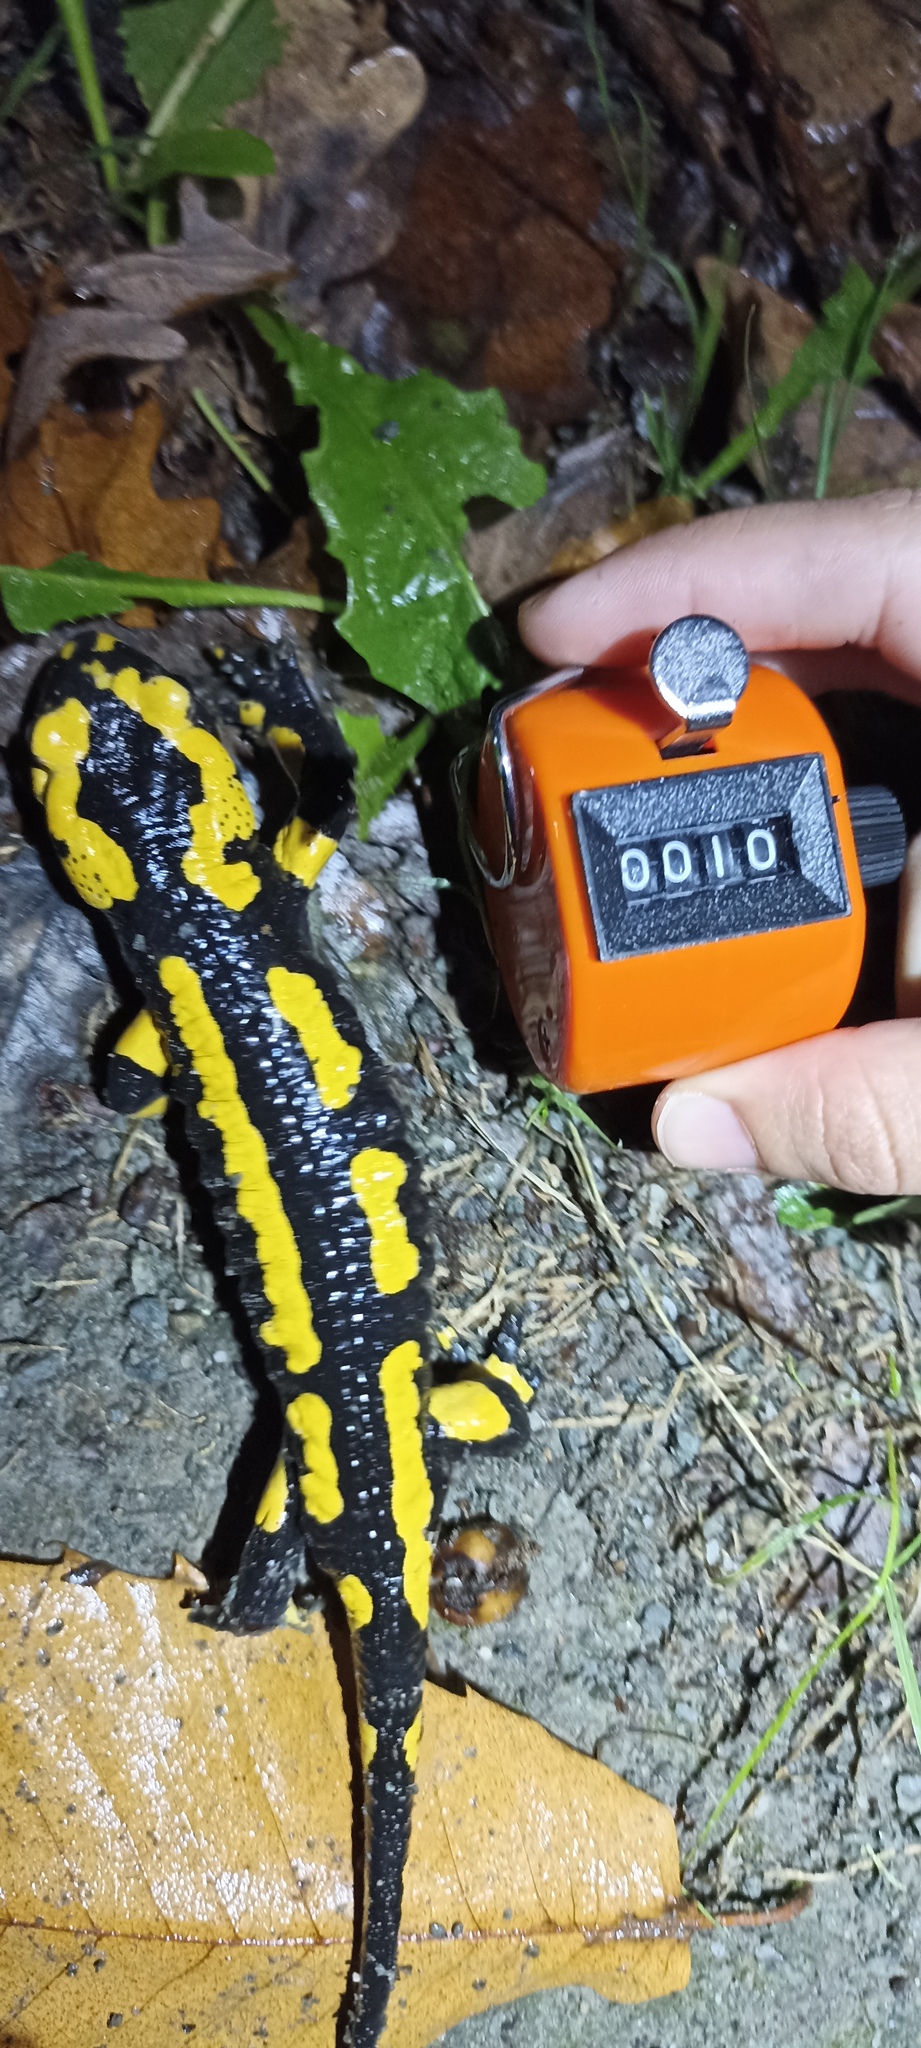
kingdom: Animalia
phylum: Chordata
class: Amphibia
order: Caudata
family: Salamandridae
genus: Salamandra
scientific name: Salamandra salamandra
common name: Fire salamander
